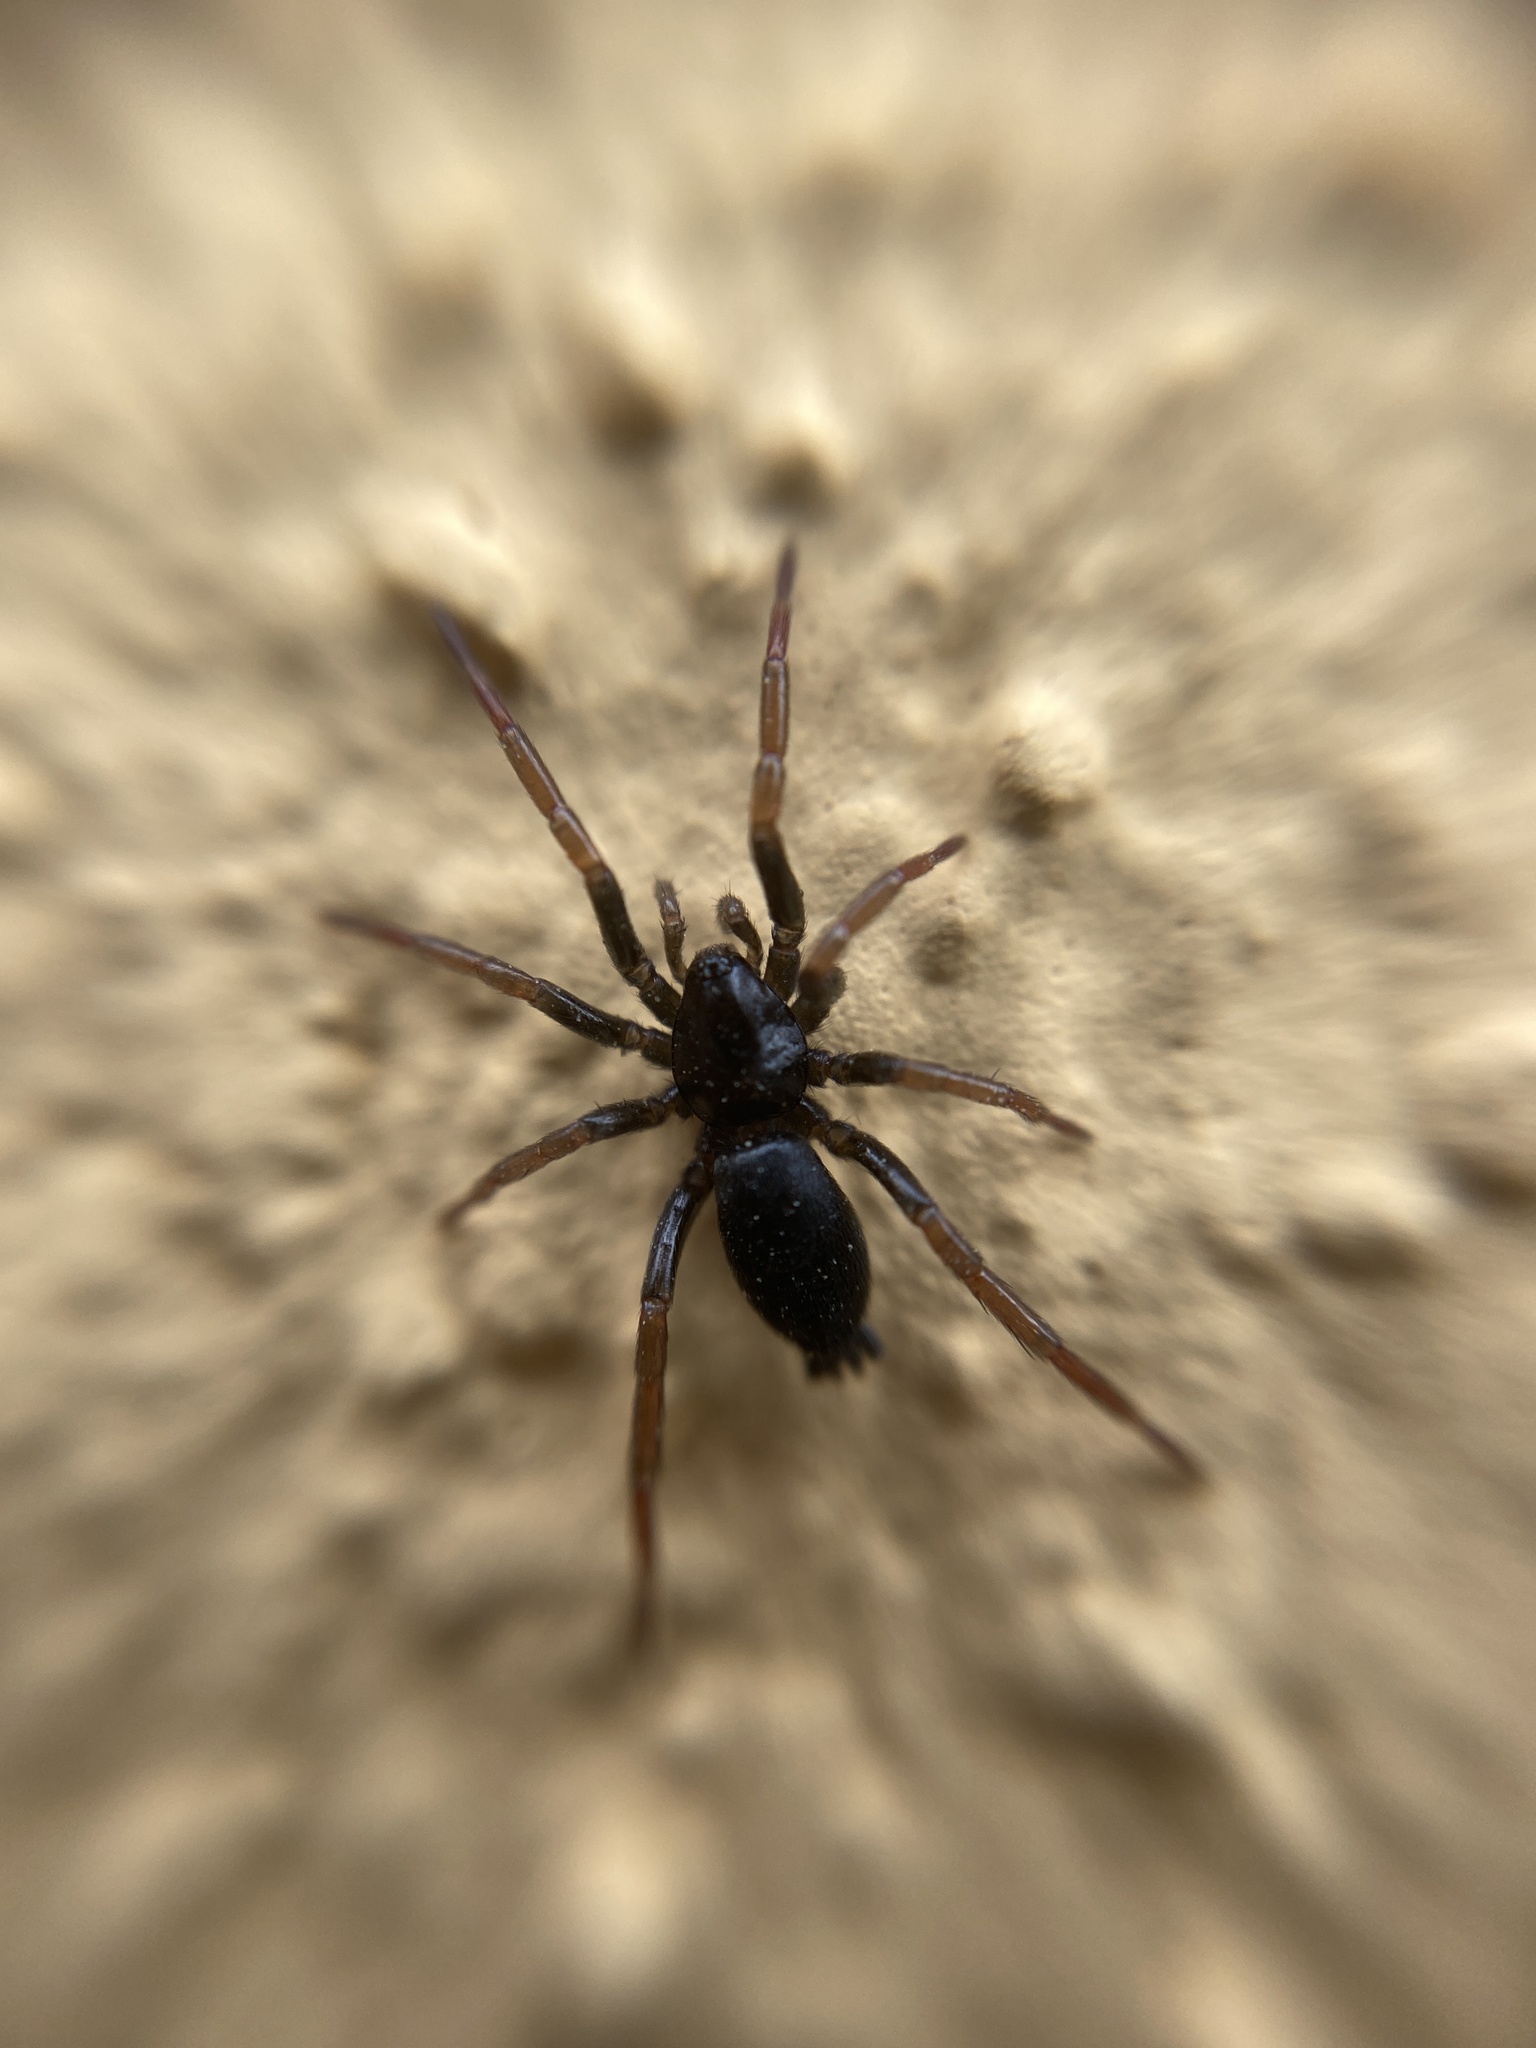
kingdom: Animalia
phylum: Arthropoda
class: Arachnida
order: Araneae
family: Gnaphosidae
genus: Trachyzelotes
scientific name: Trachyzelotes pedestris
